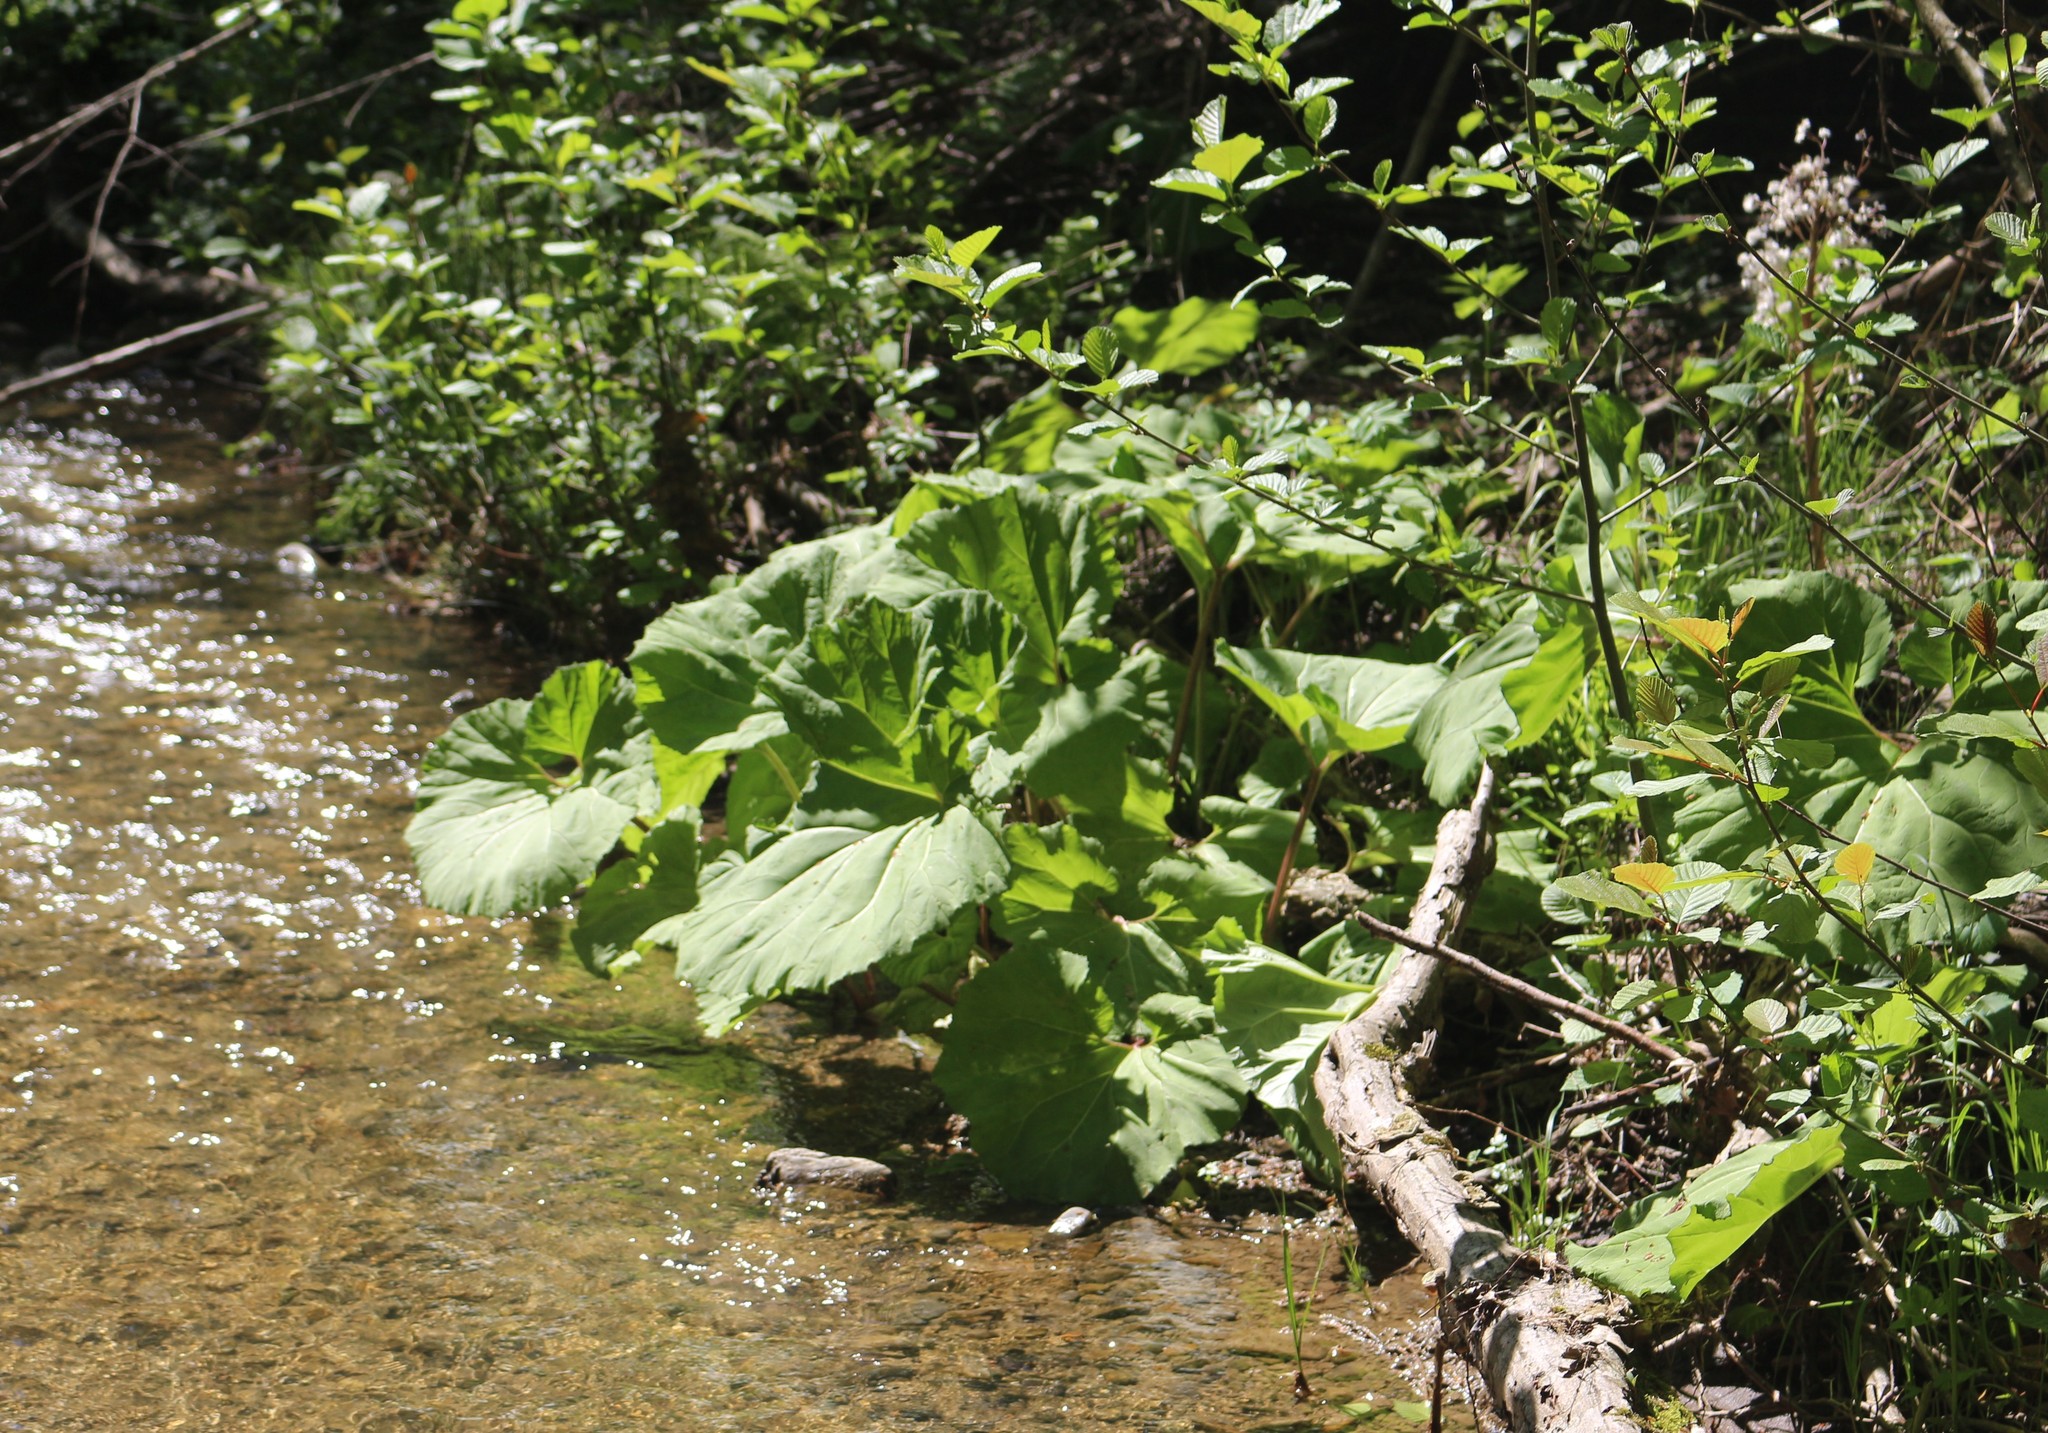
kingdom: Plantae
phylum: Tracheophyta
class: Magnoliopsida
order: Asterales
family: Asteraceae
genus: Petasites
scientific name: Petasites hybridus
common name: Butterbur
